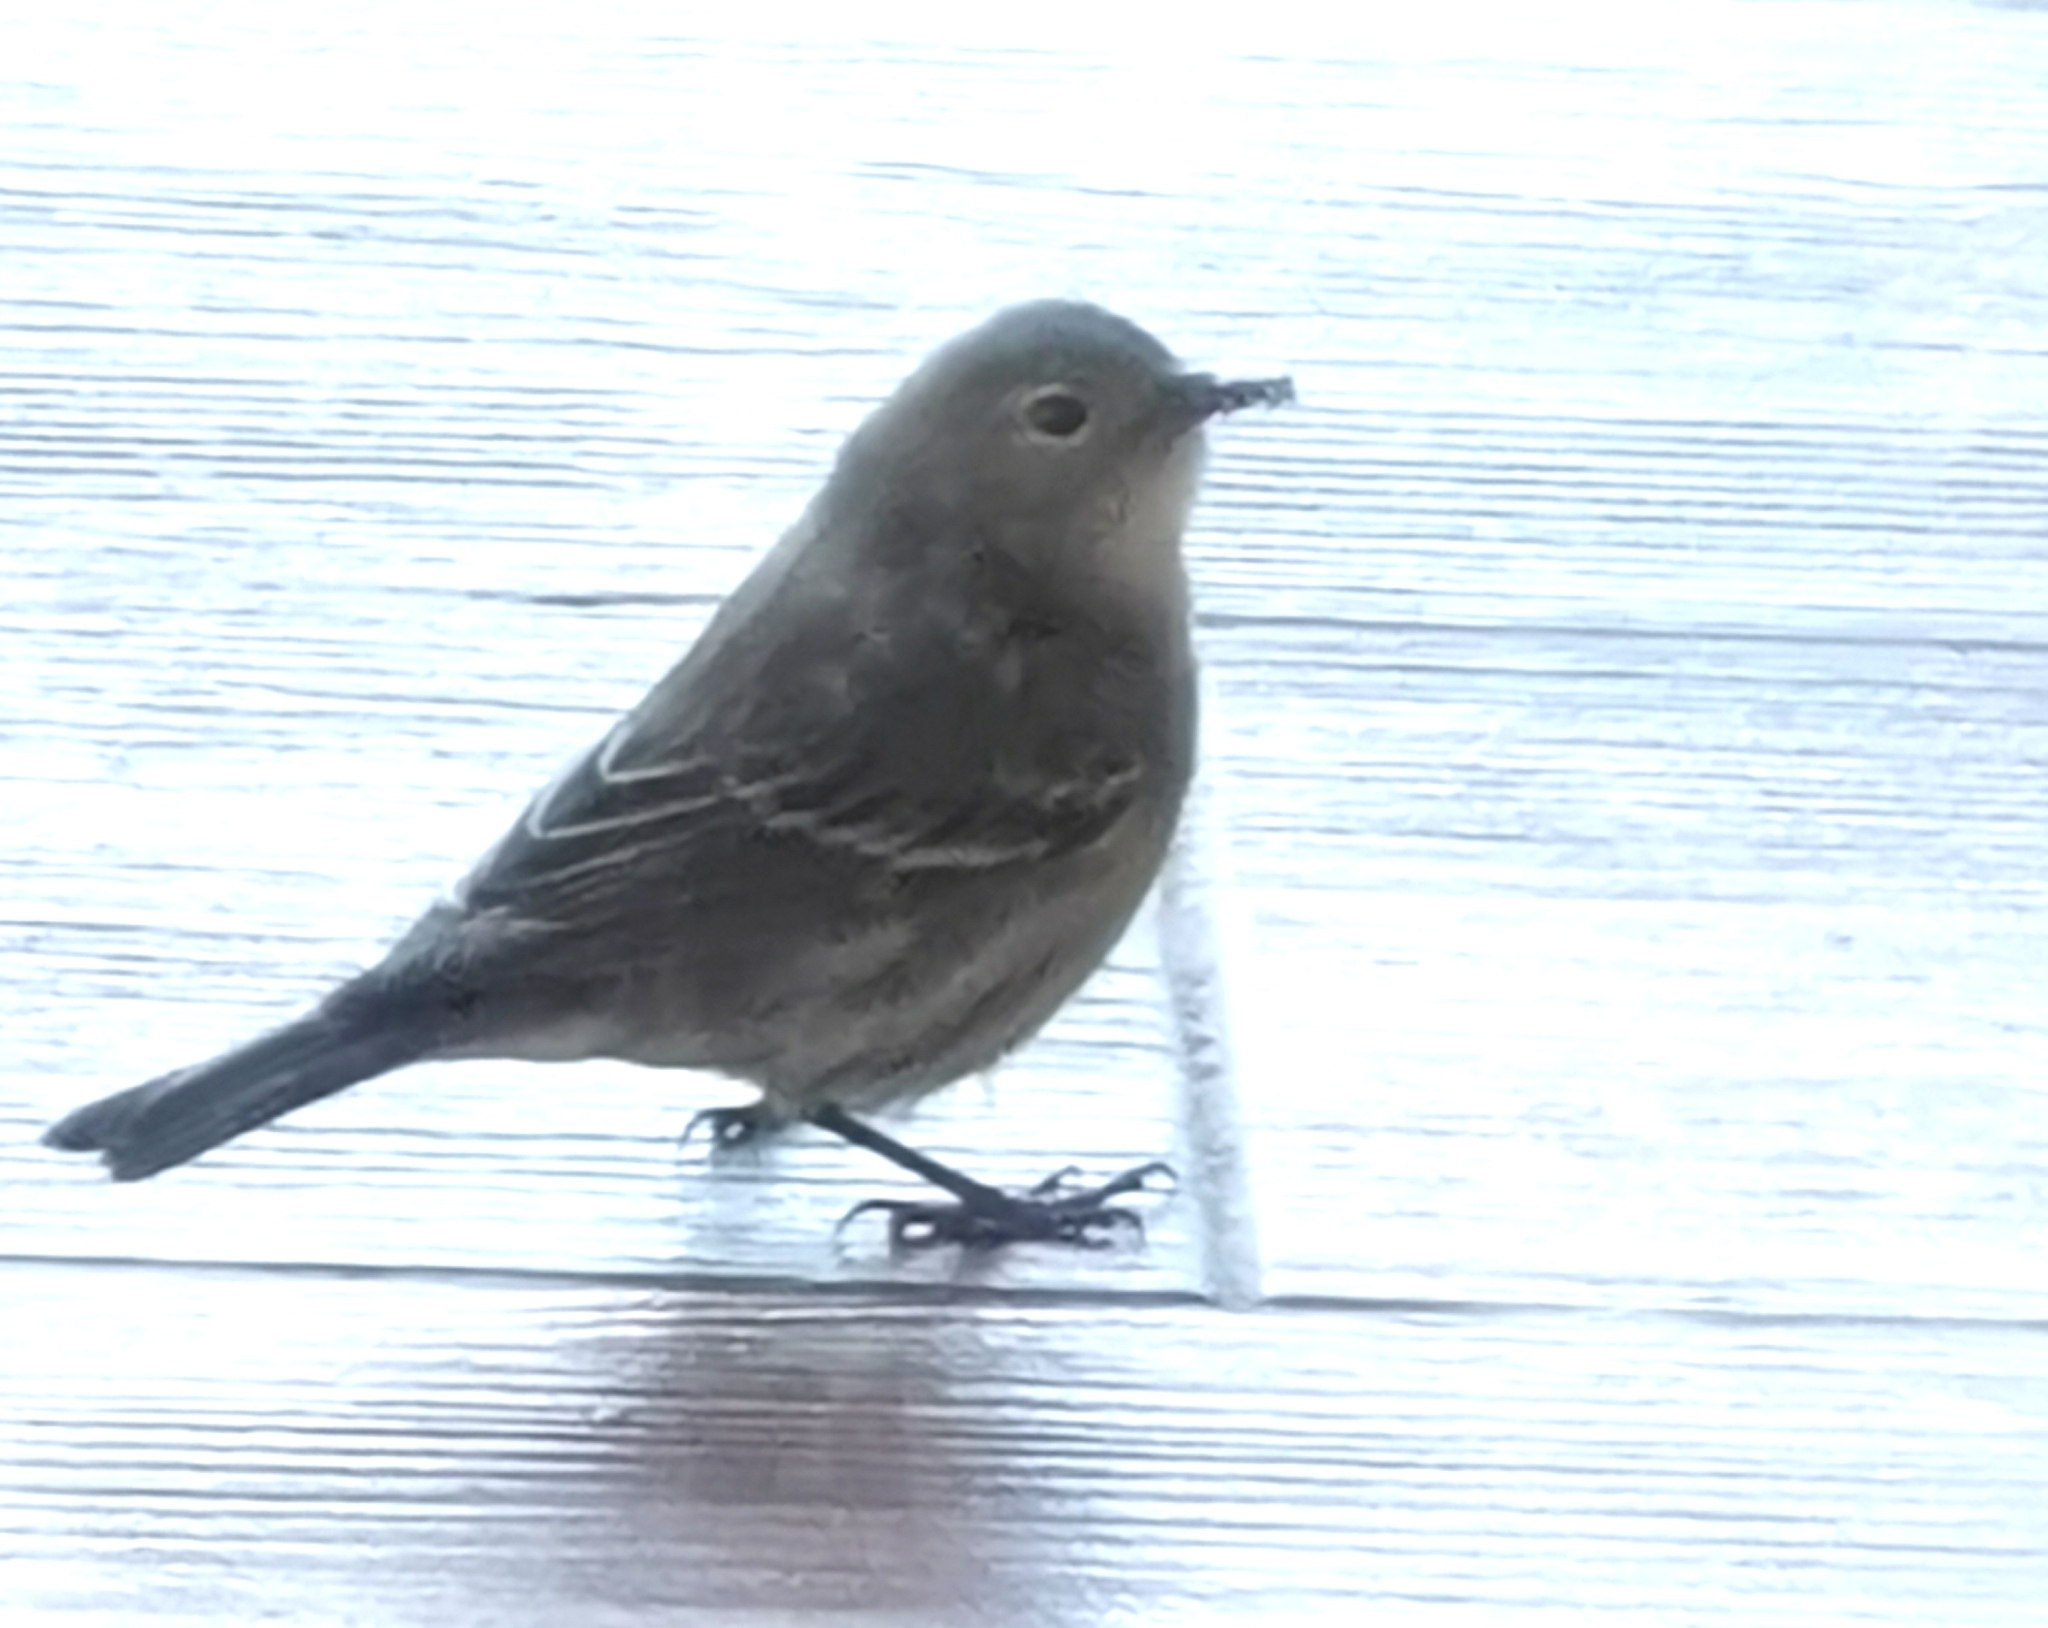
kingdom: Animalia
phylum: Chordata
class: Aves
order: Passeriformes
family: Parulidae
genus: Setophaga
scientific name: Setophaga coronata
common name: Myrtle warbler
